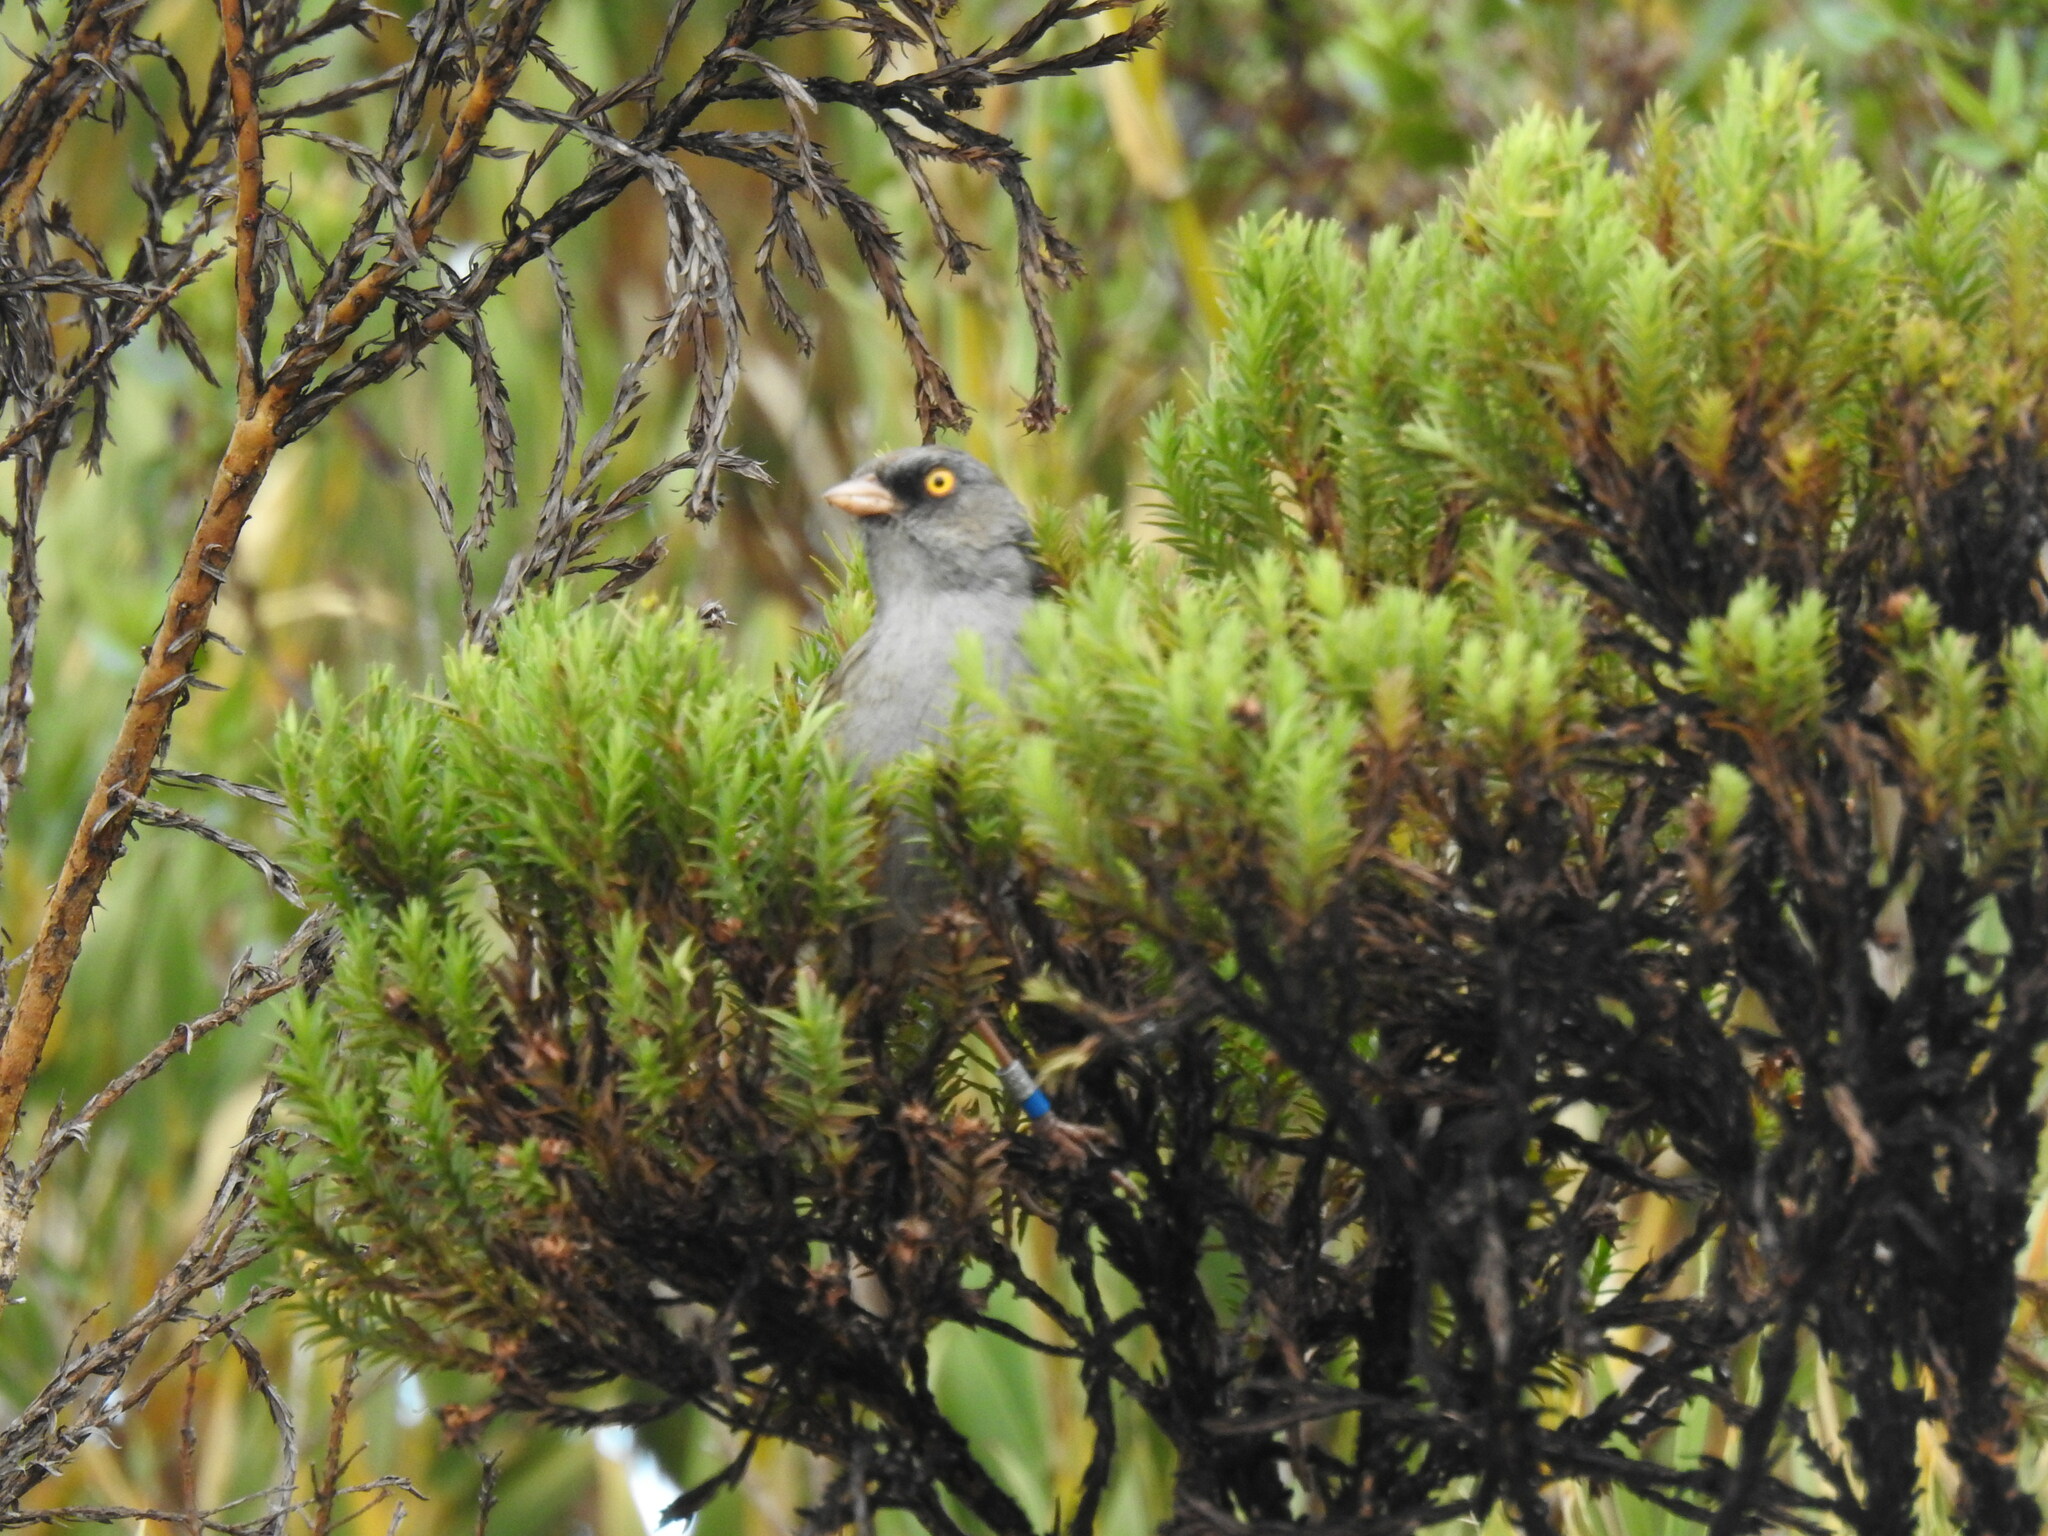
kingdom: Animalia
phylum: Chordata
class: Aves
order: Passeriformes
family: Passerellidae
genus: Junco
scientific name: Junco vulcani
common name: Volcano junco
